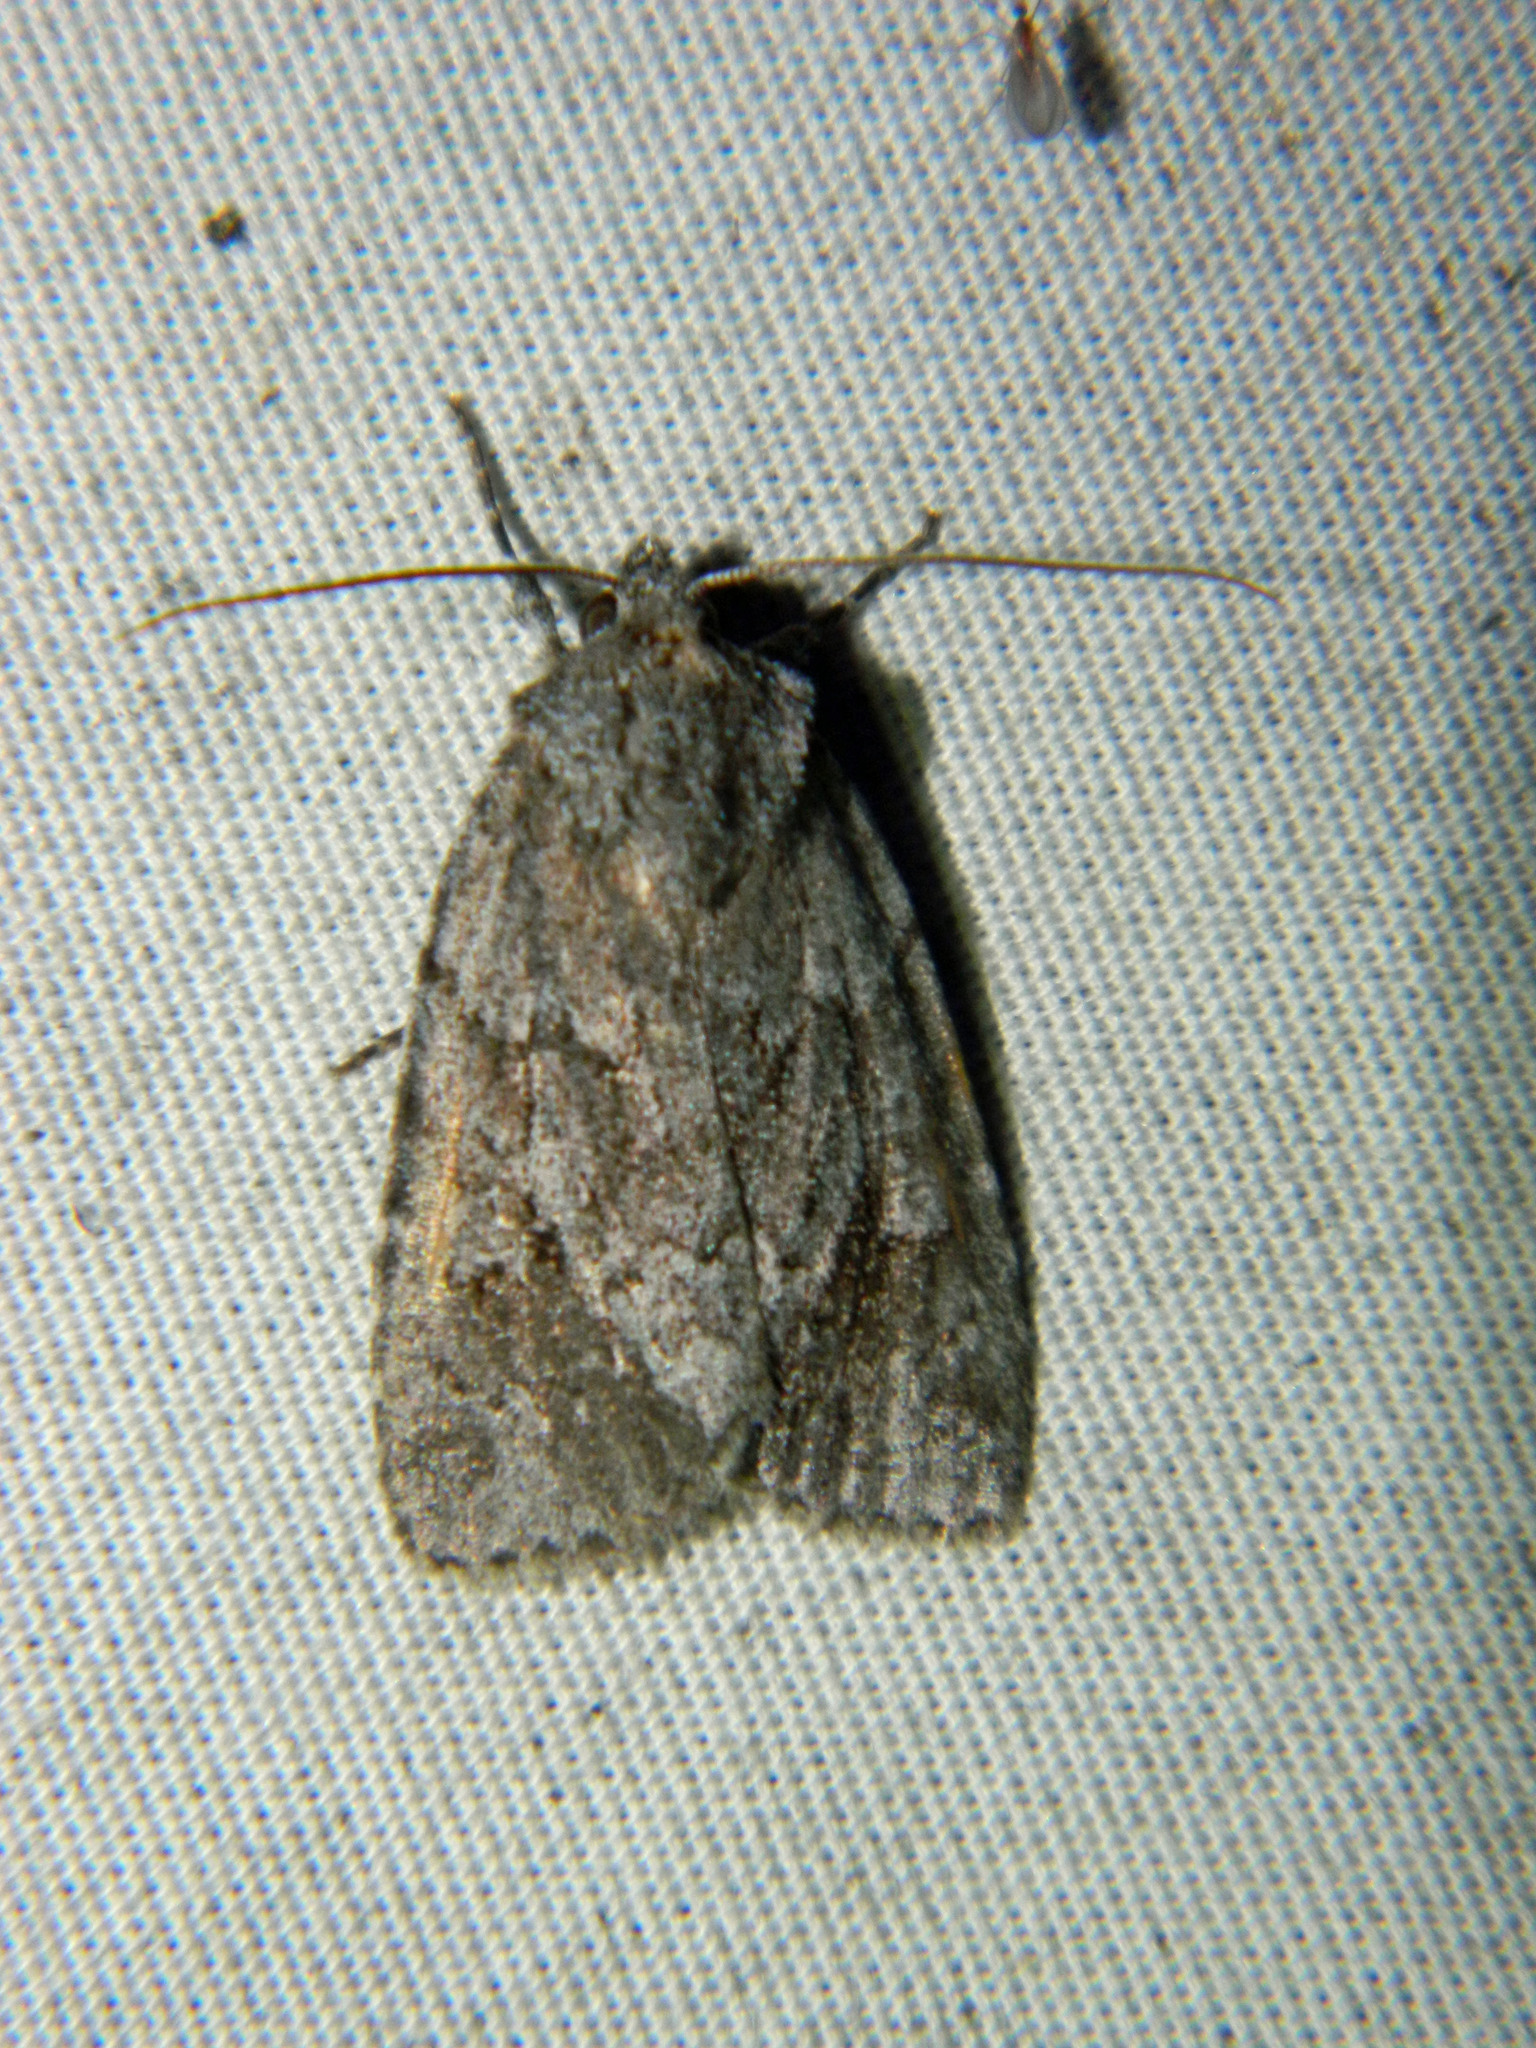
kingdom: Animalia
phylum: Arthropoda
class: Insecta
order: Lepidoptera
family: Noctuidae
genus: Sympistis
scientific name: Sympistis dentata
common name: Blueberry sallow
